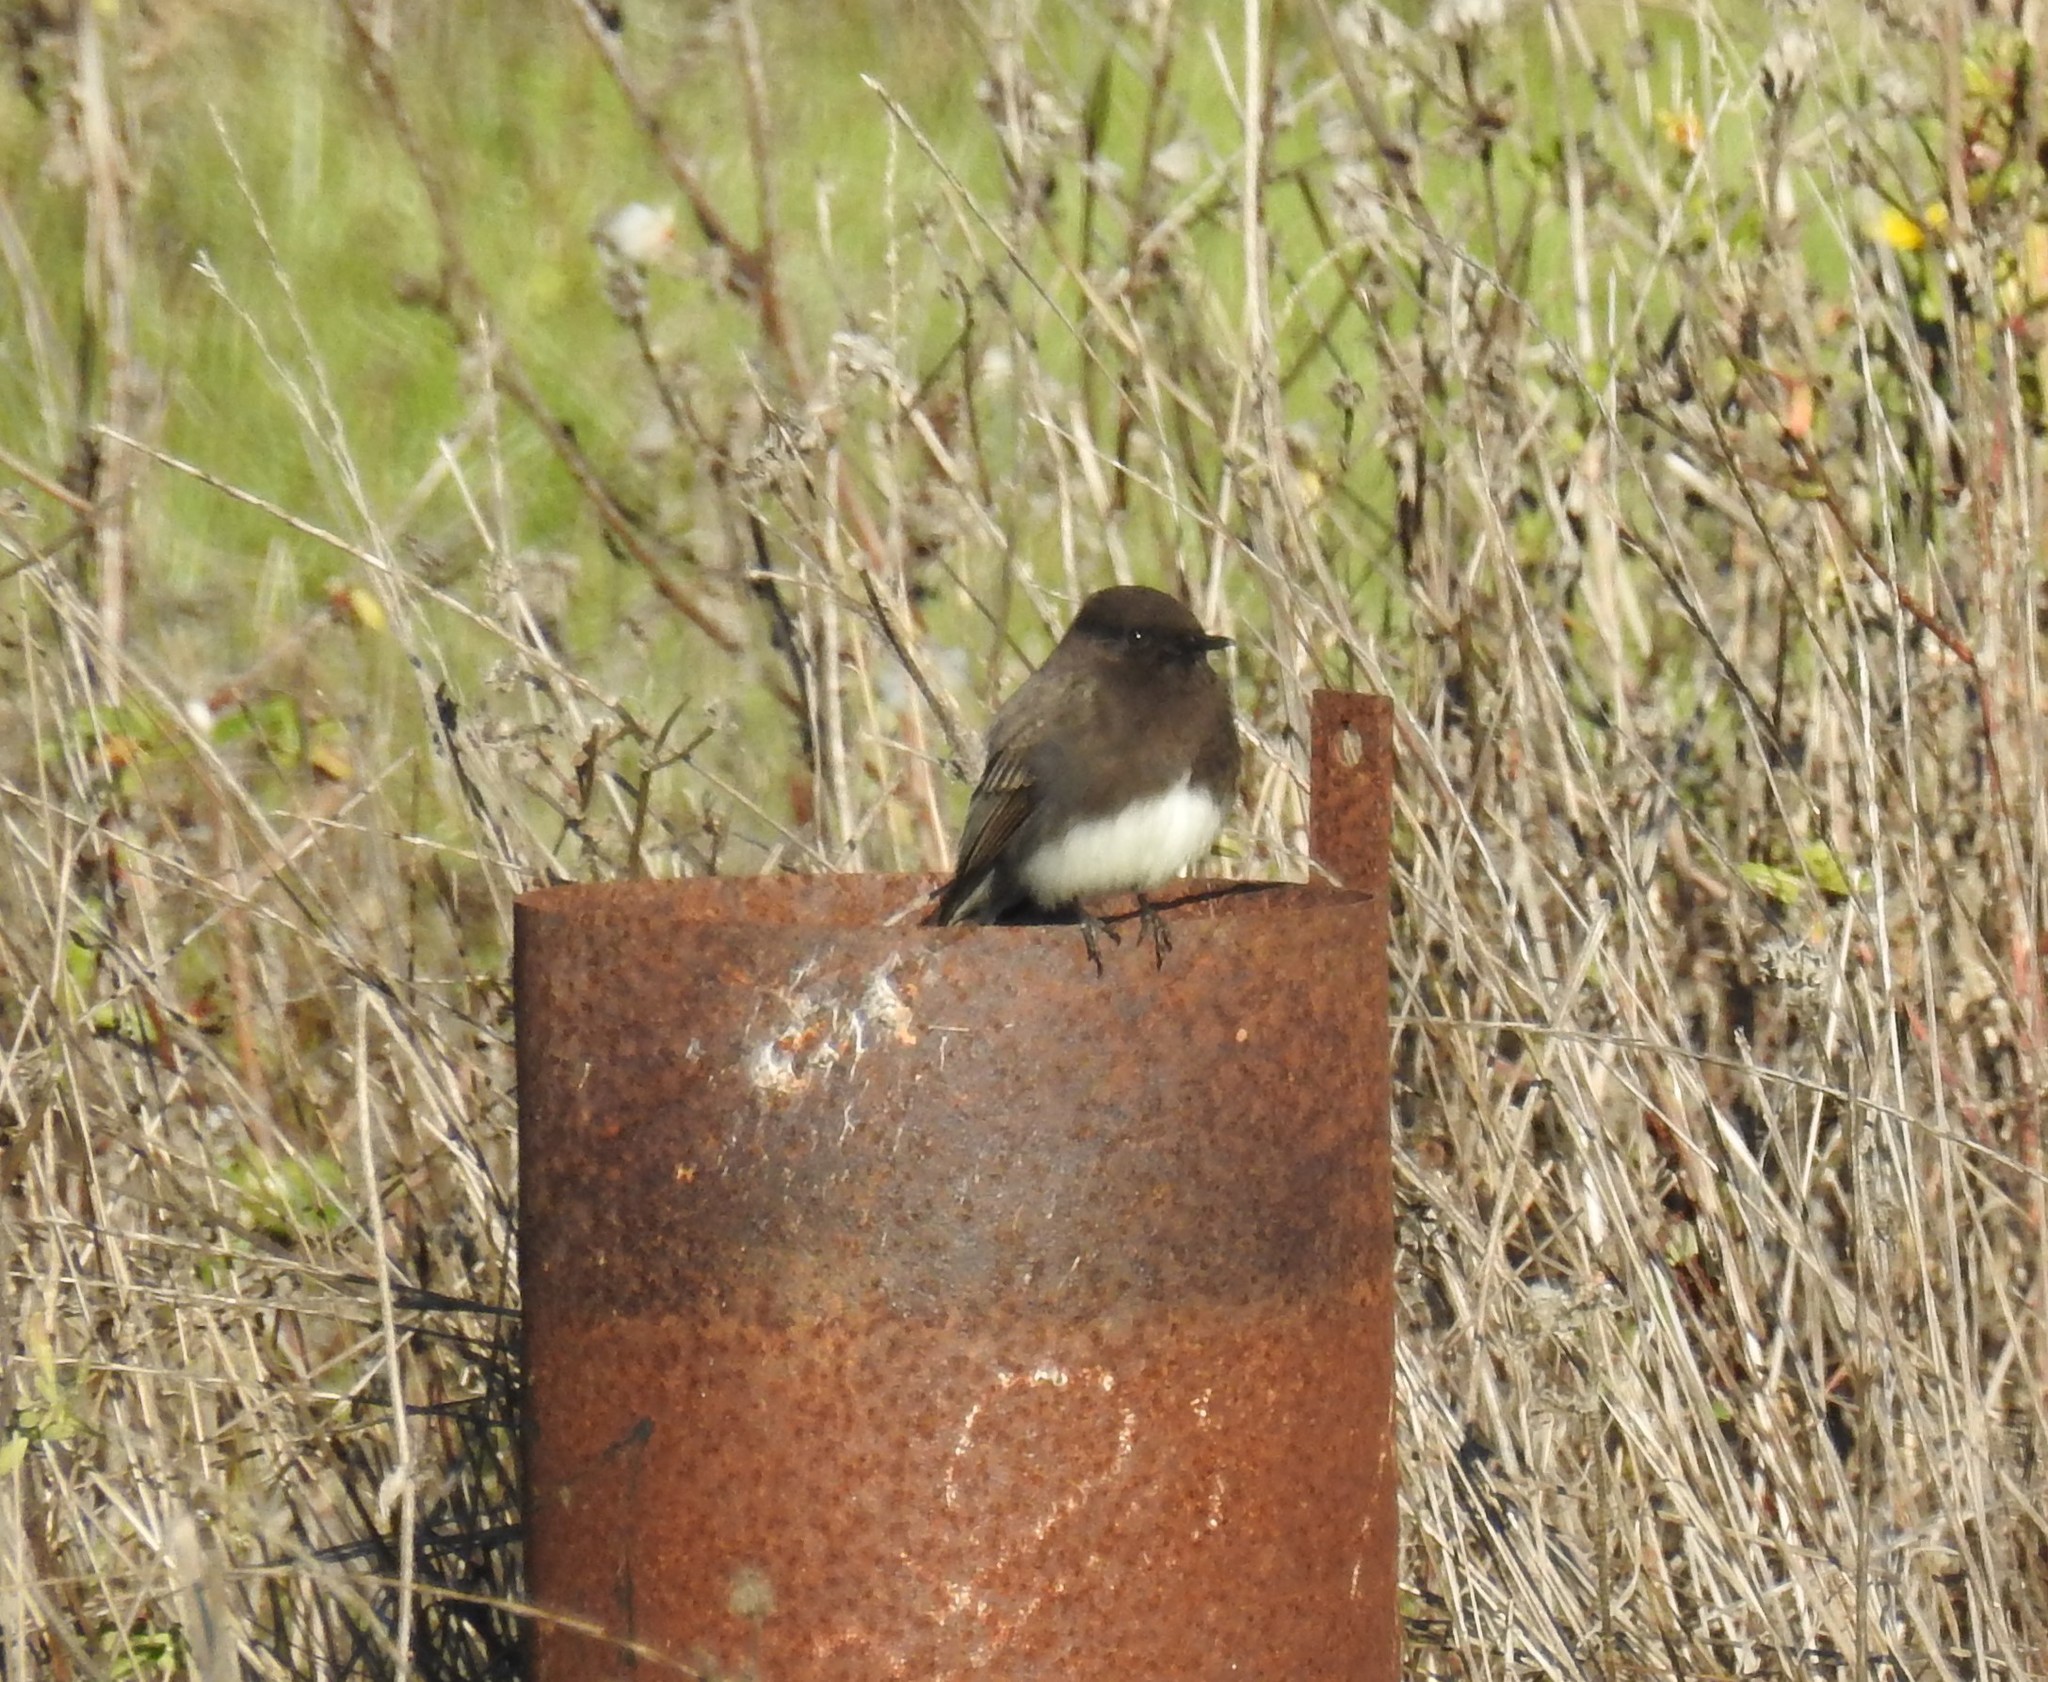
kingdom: Animalia
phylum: Chordata
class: Aves
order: Passeriformes
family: Tyrannidae
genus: Sayornis
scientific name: Sayornis nigricans
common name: Black phoebe
